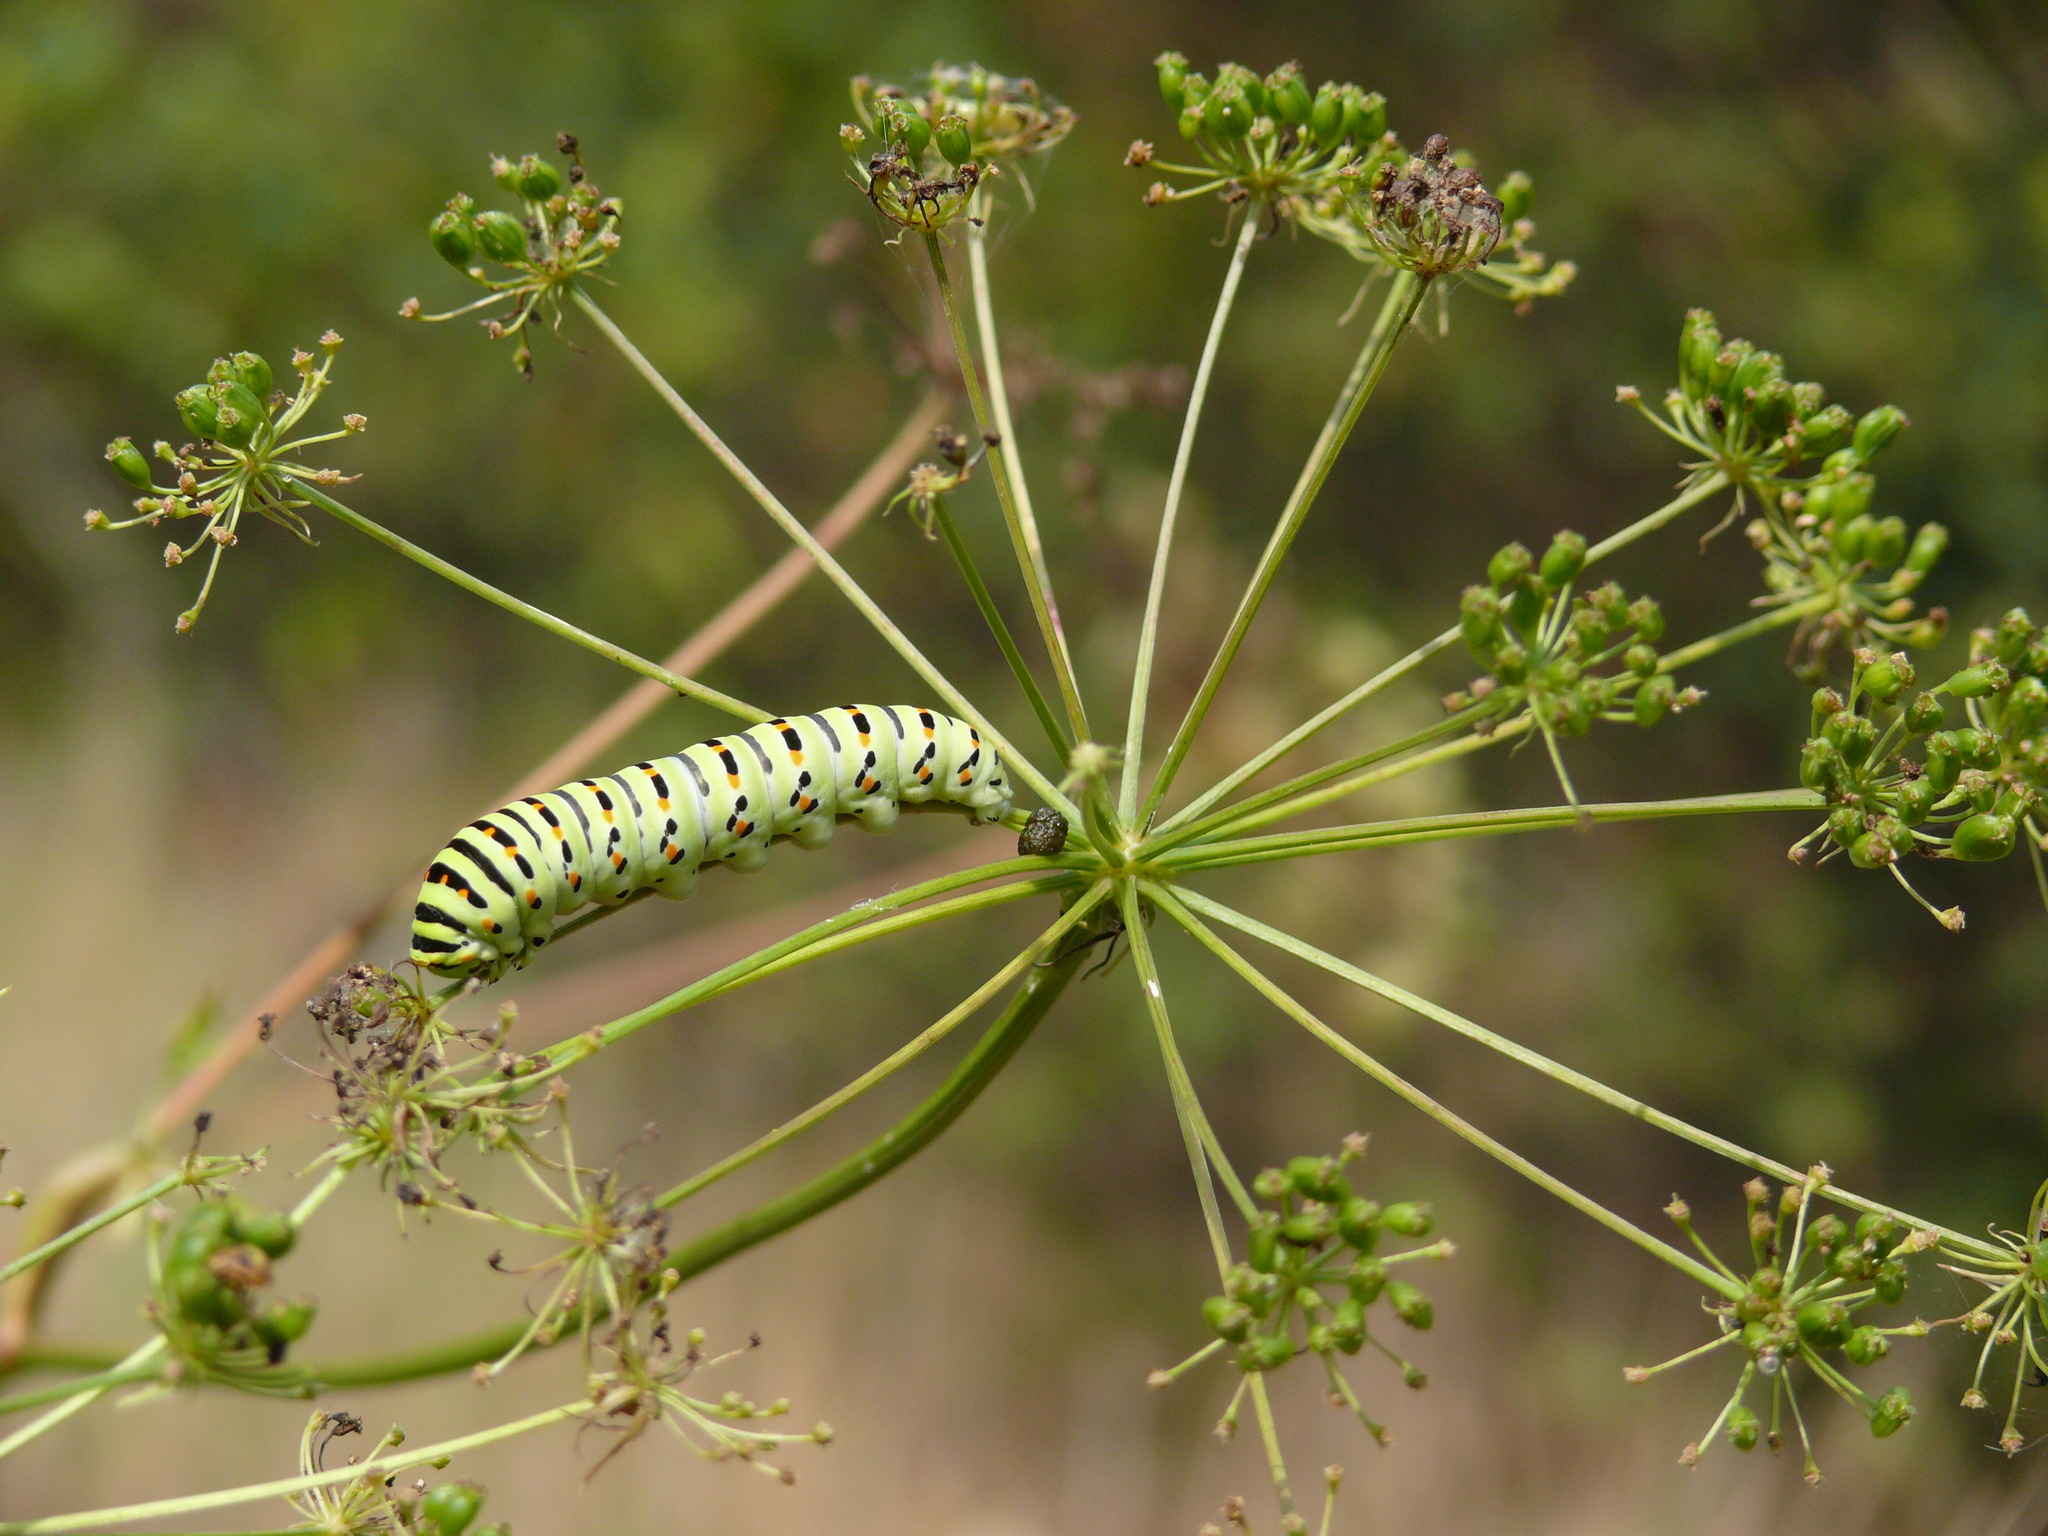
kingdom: Animalia
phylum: Arthropoda
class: Insecta
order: Lepidoptera
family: Papilionidae
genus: Papilio
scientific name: Papilio machaon
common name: Swallowtail
